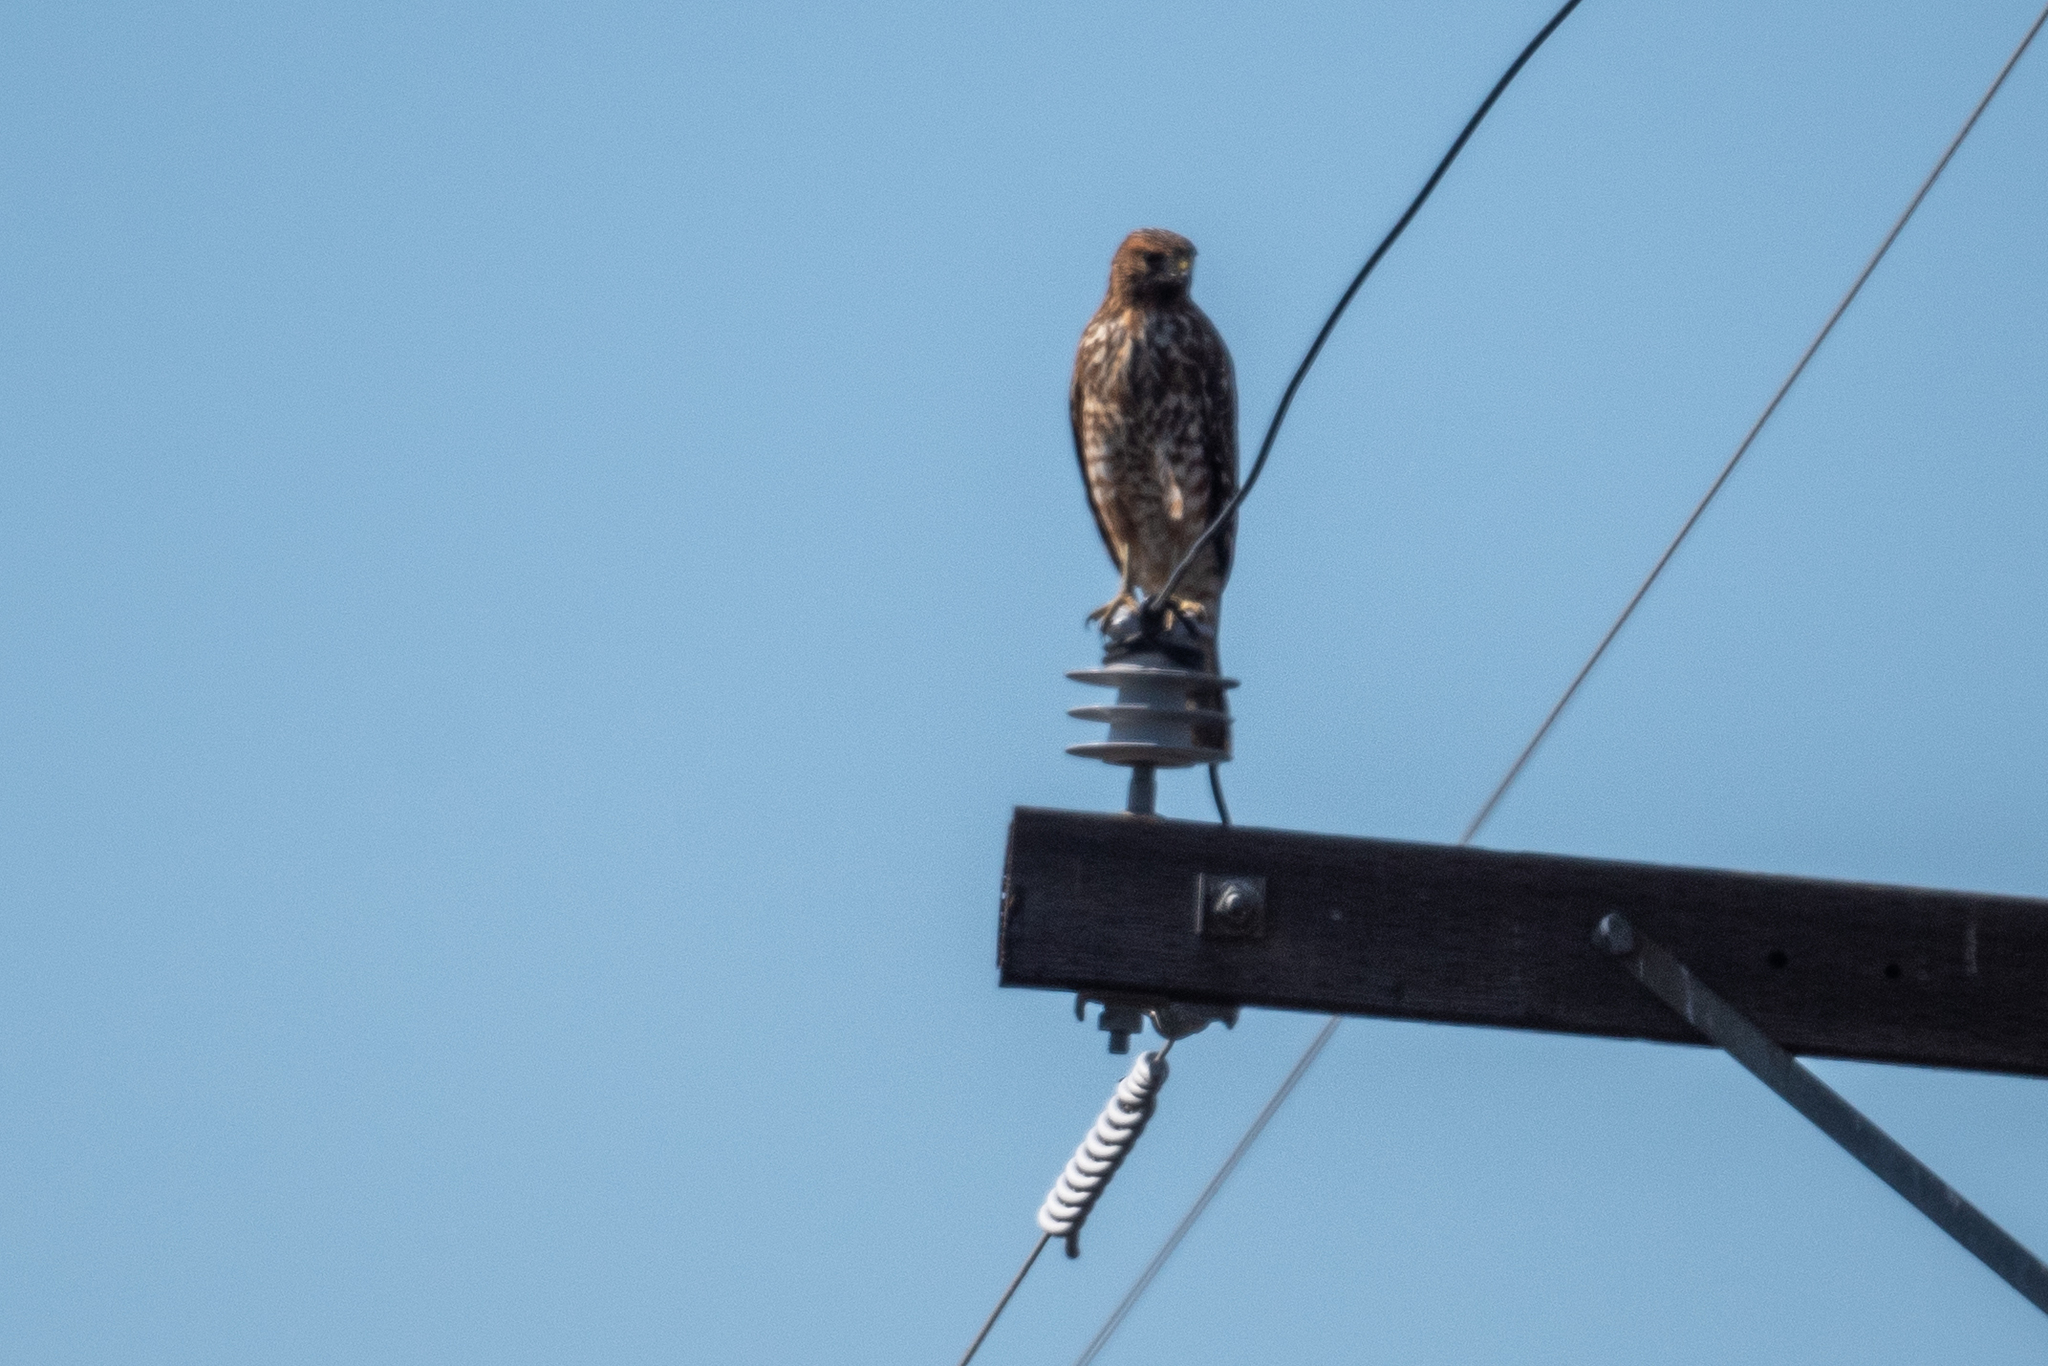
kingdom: Animalia
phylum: Chordata
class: Aves
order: Accipitriformes
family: Accipitridae
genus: Buteo
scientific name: Buteo lineatus
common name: Red-shouldered hawk
